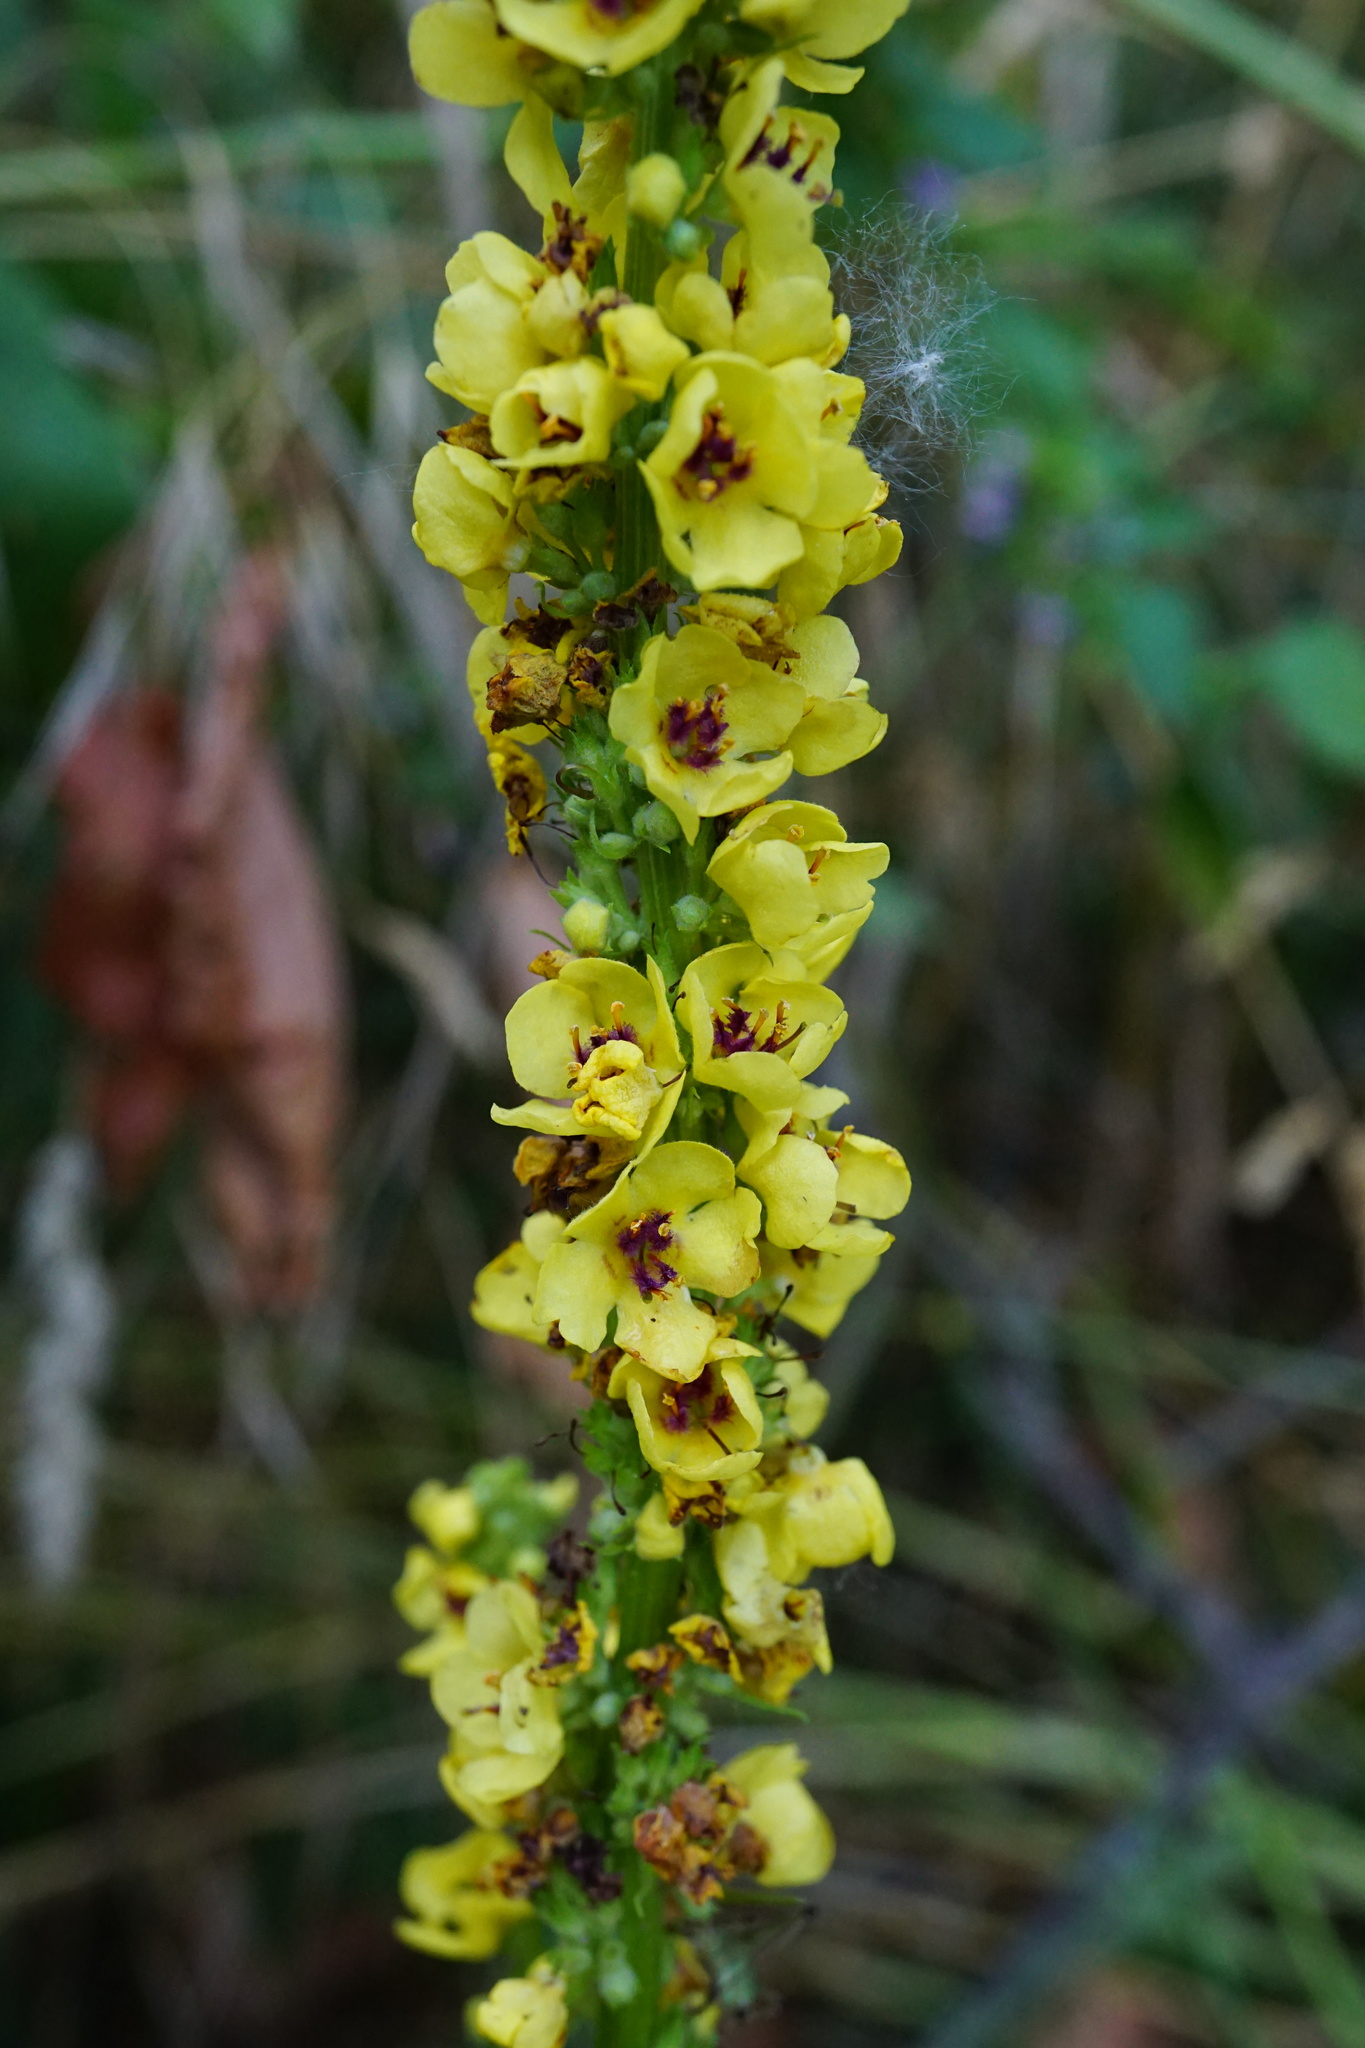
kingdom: Plantae
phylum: Tracheophyta
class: Magnoliopsida
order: Lamiales
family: Scrophulariaceae
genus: Verbascum
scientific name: Verbascum nigrum
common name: Dark mullein
